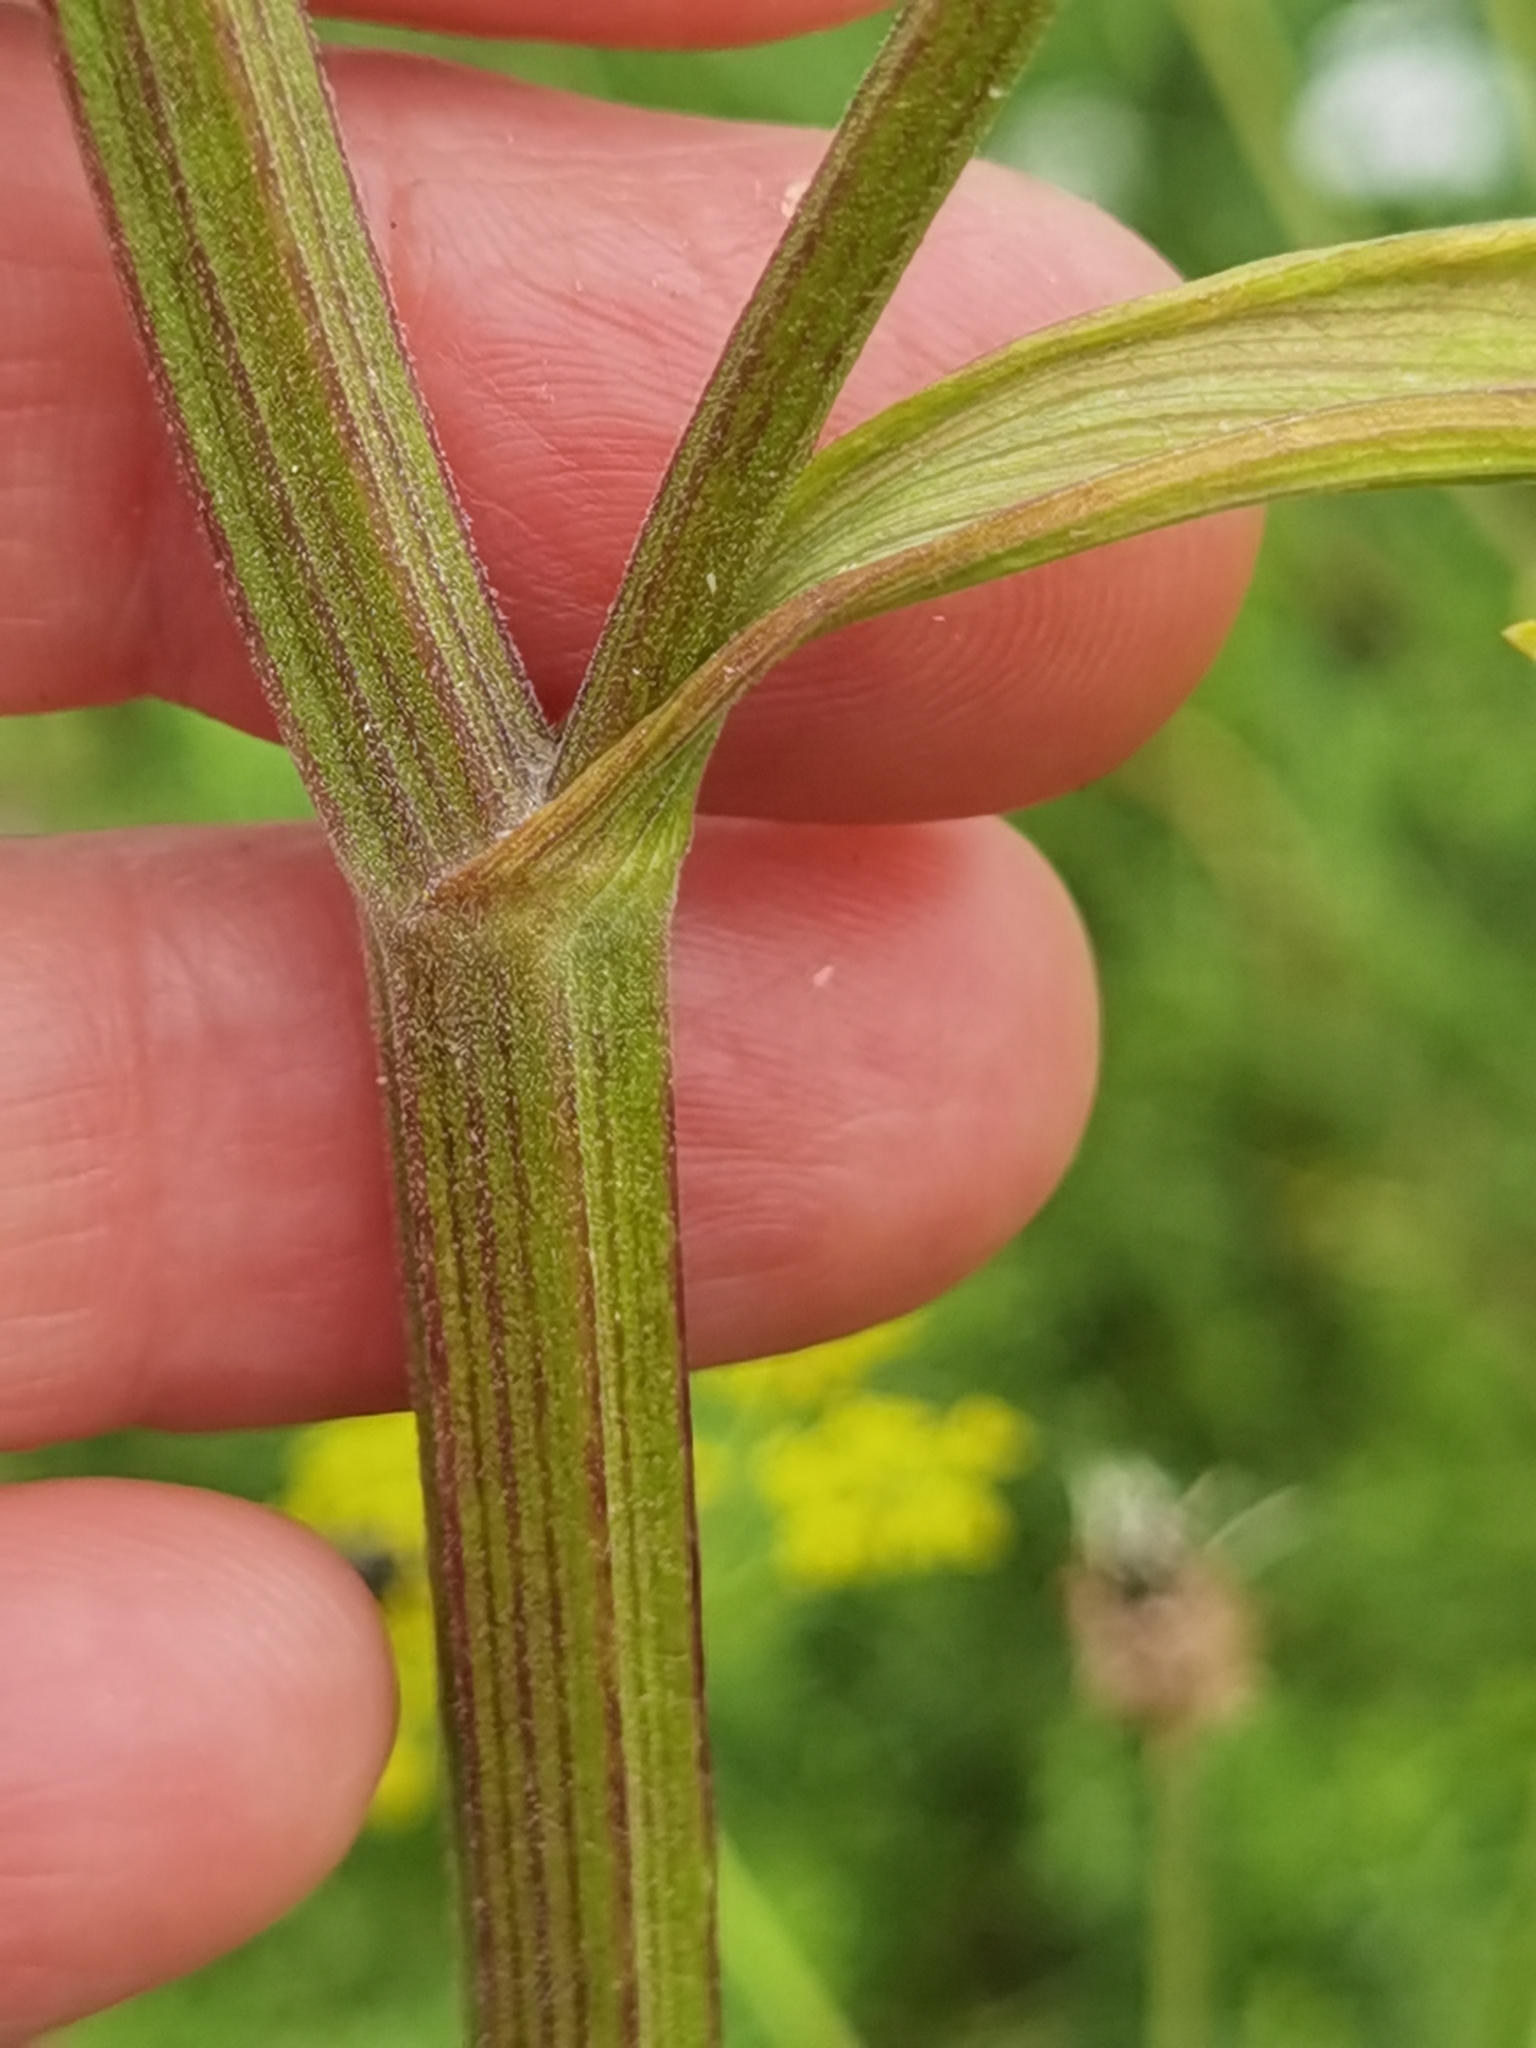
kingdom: Plantae
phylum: Tracheophyta
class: Magnoliopsida
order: Apiales
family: Apiaceae
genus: Pastinaca
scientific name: Pastinaca sativa
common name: Wild parsnip
